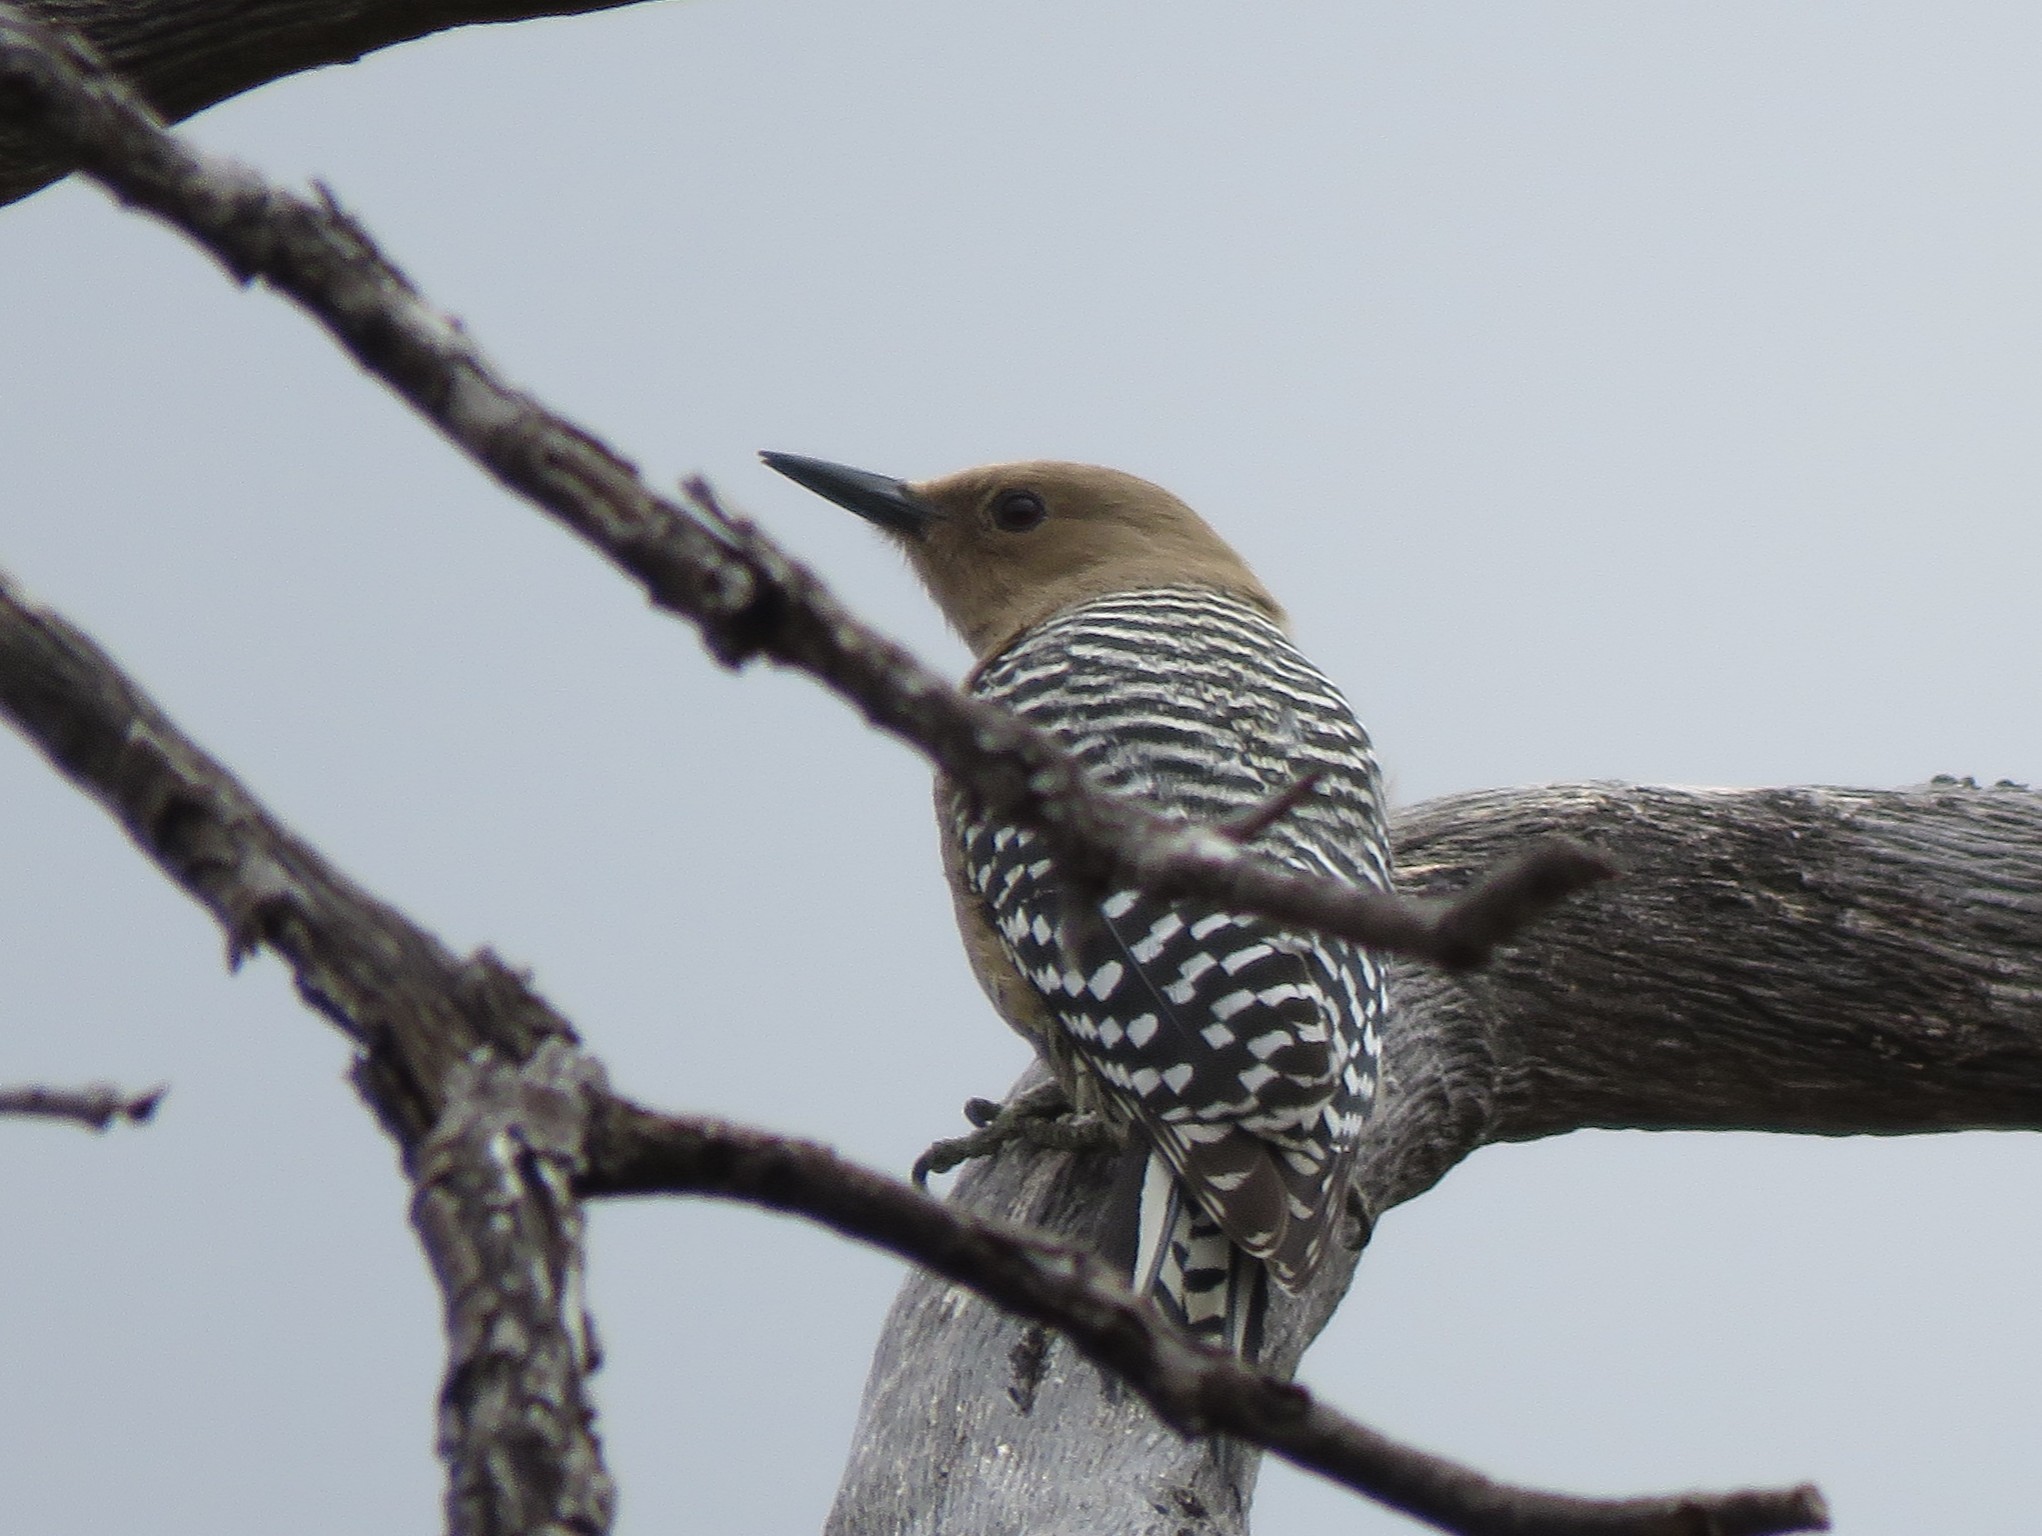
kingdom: Animalia
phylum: Chordata
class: Aves
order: Piciformes
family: Picidae
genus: Melanerpes
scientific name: Melanerpes uropygialis
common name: Gila woodpecker
